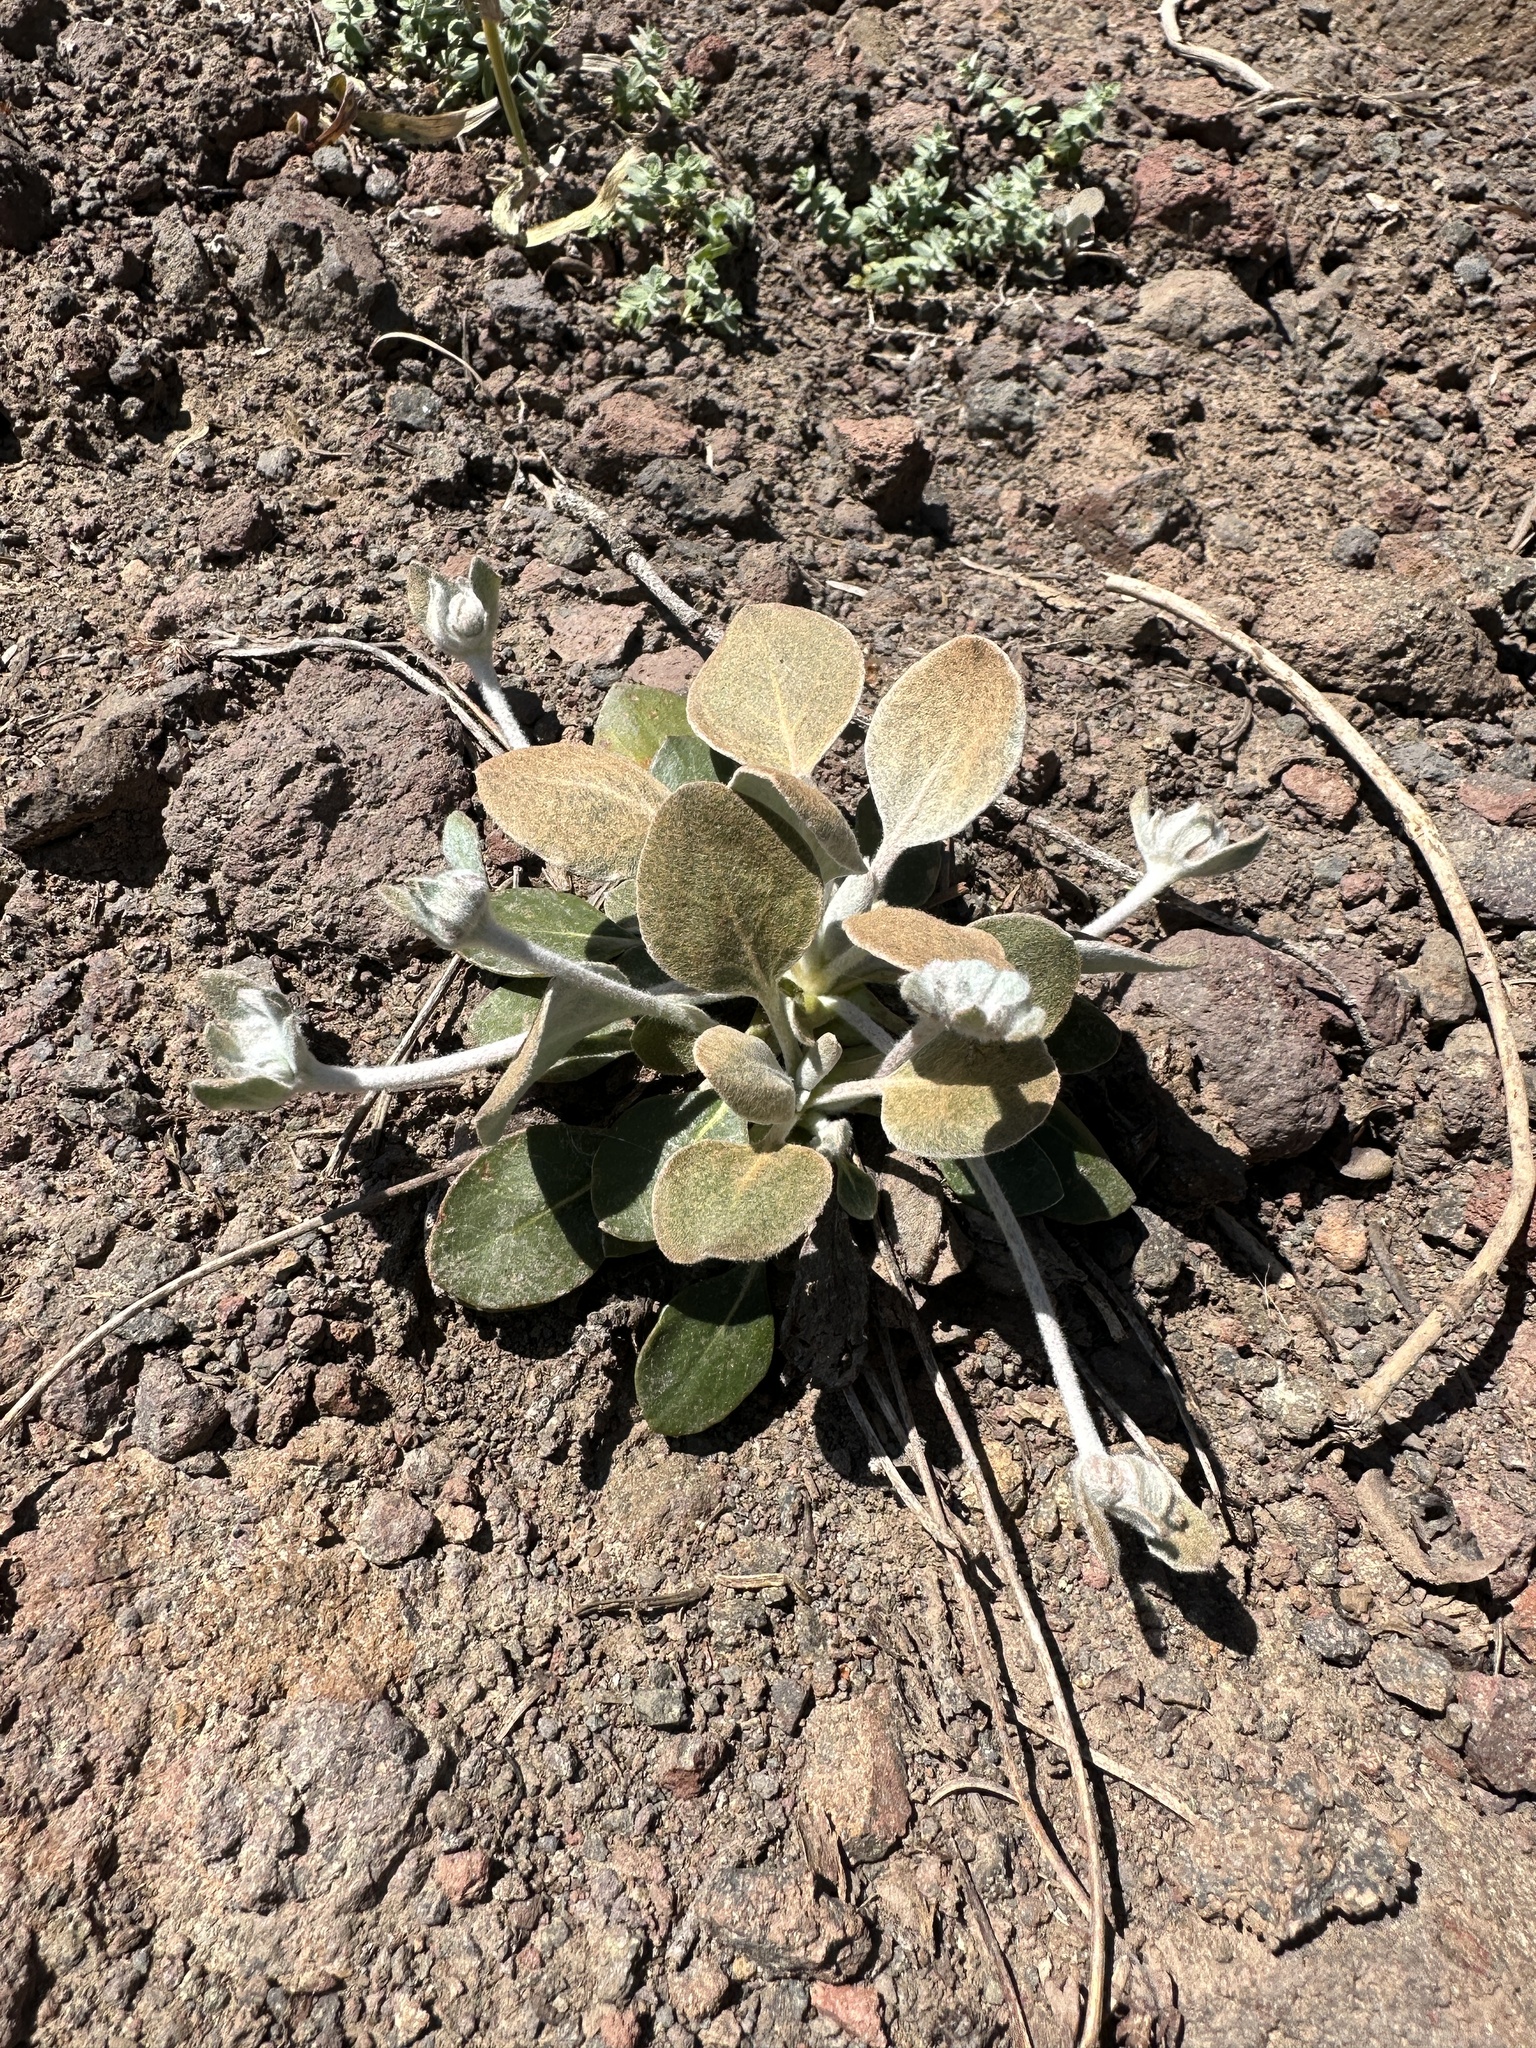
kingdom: Plantae
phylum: Tracheophyta
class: Magnoliopsida
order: Caryophyllales
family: Polygonaceae
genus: Eriogonum
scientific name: Eriogonum lobbii
